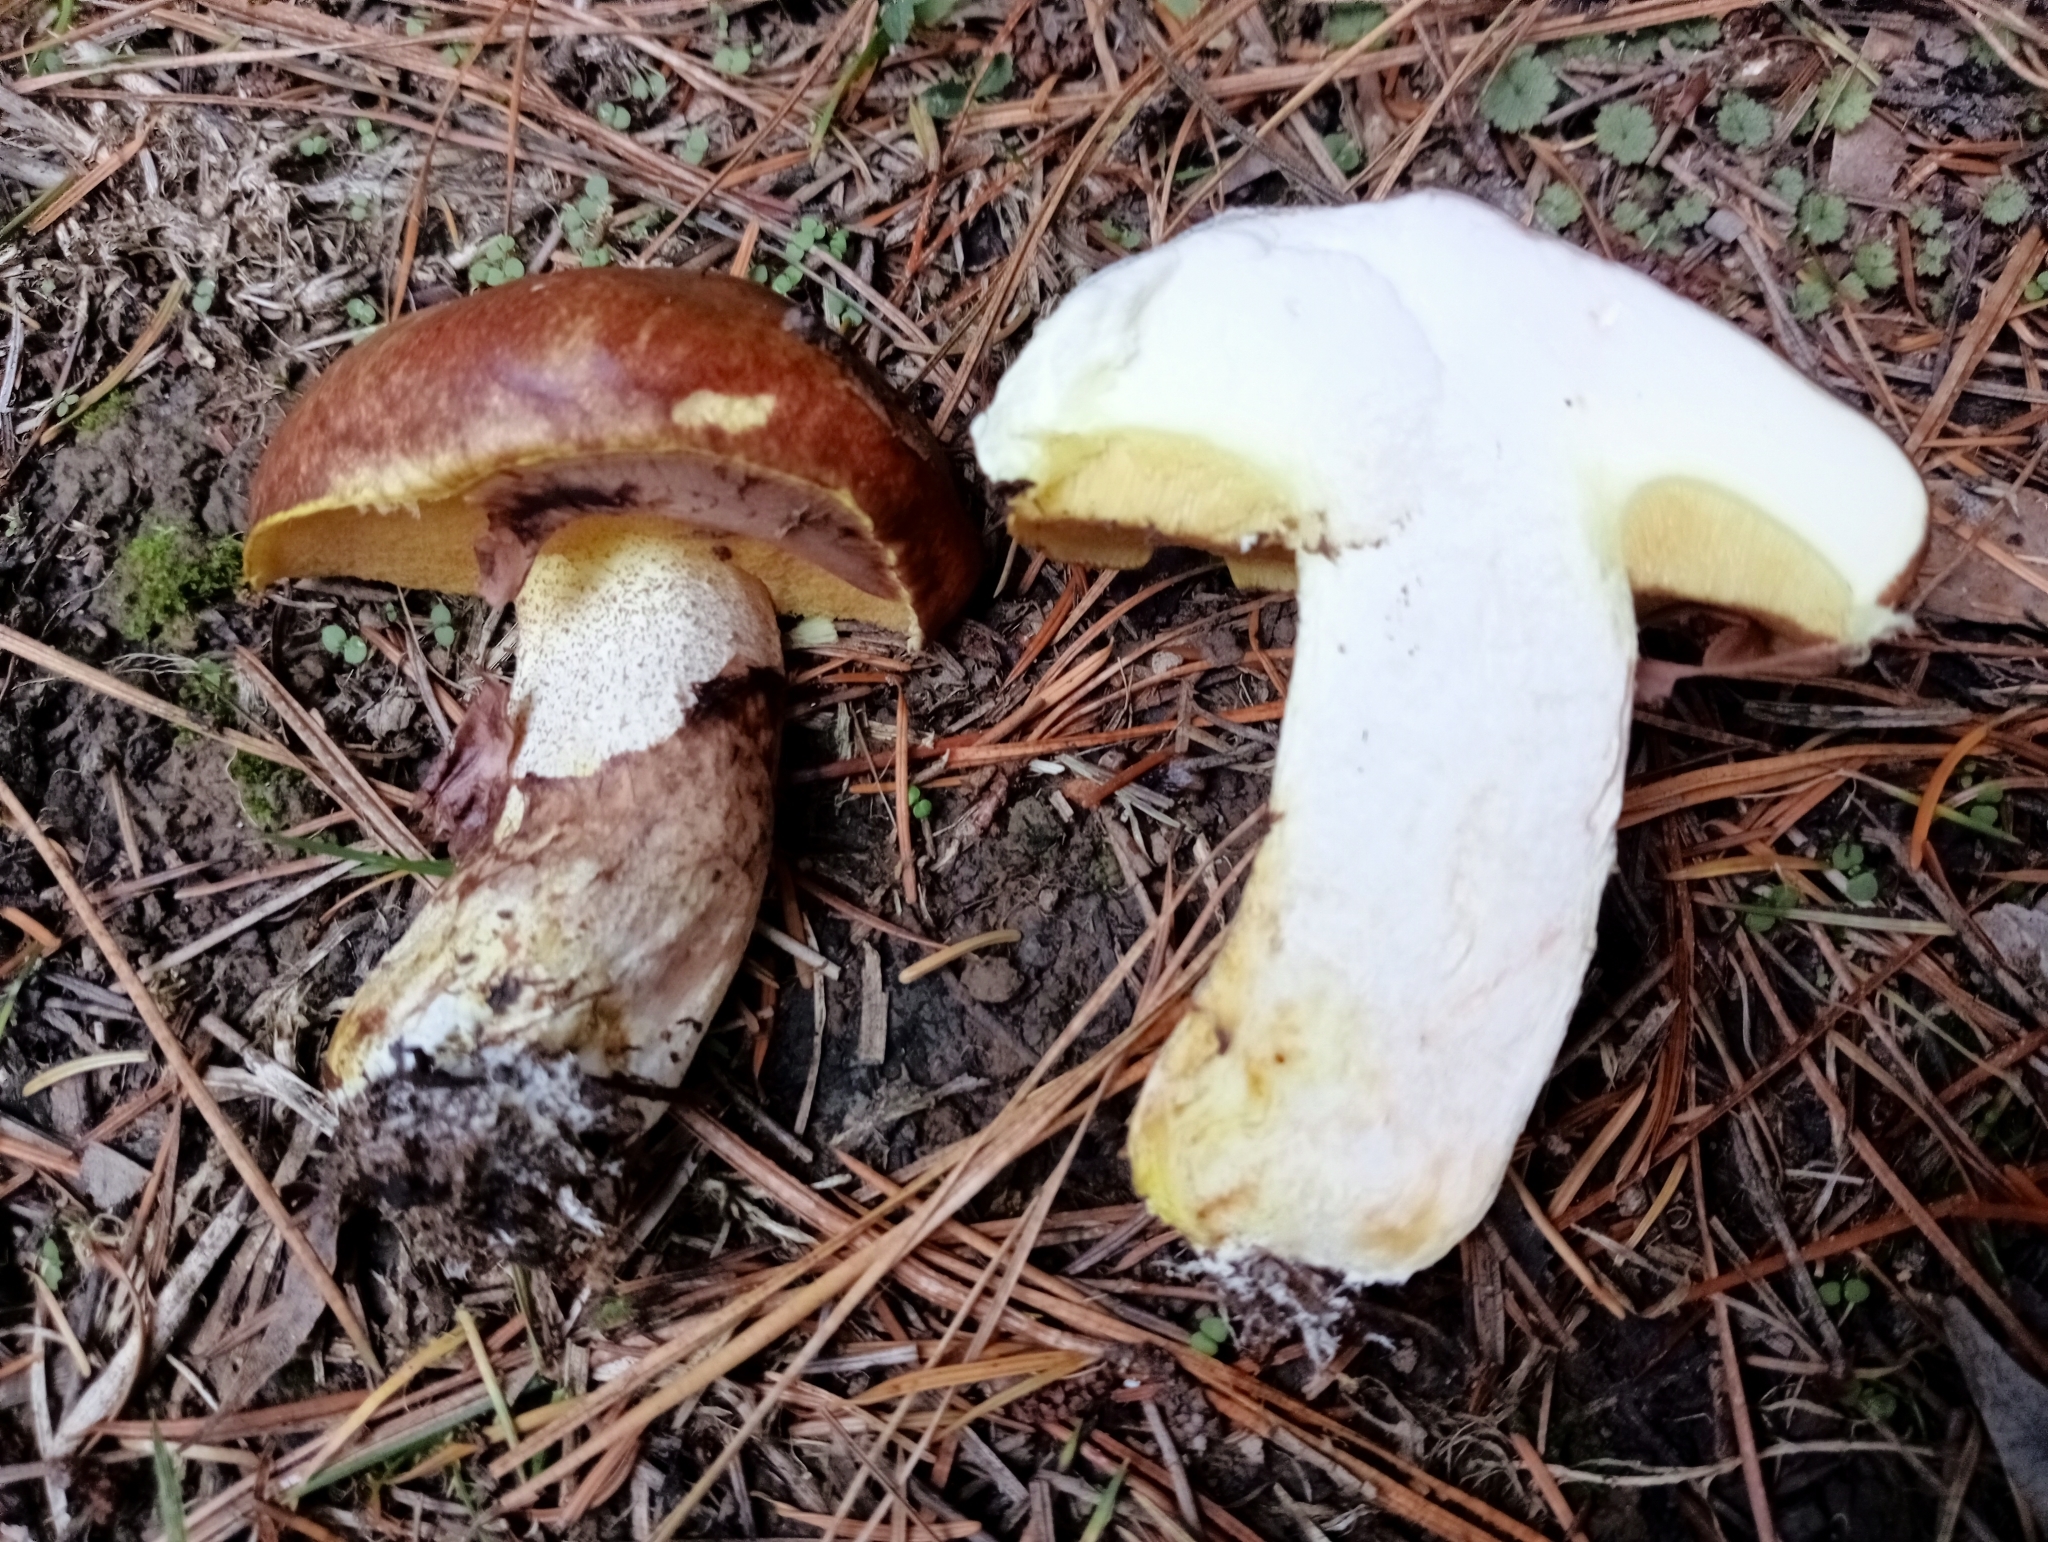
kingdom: Fungi
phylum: Basidiomycota
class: Agaricomycetes
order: Boletales
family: Suillaceae
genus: Suillus
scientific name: Suillus luteus
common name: Slippery jack
